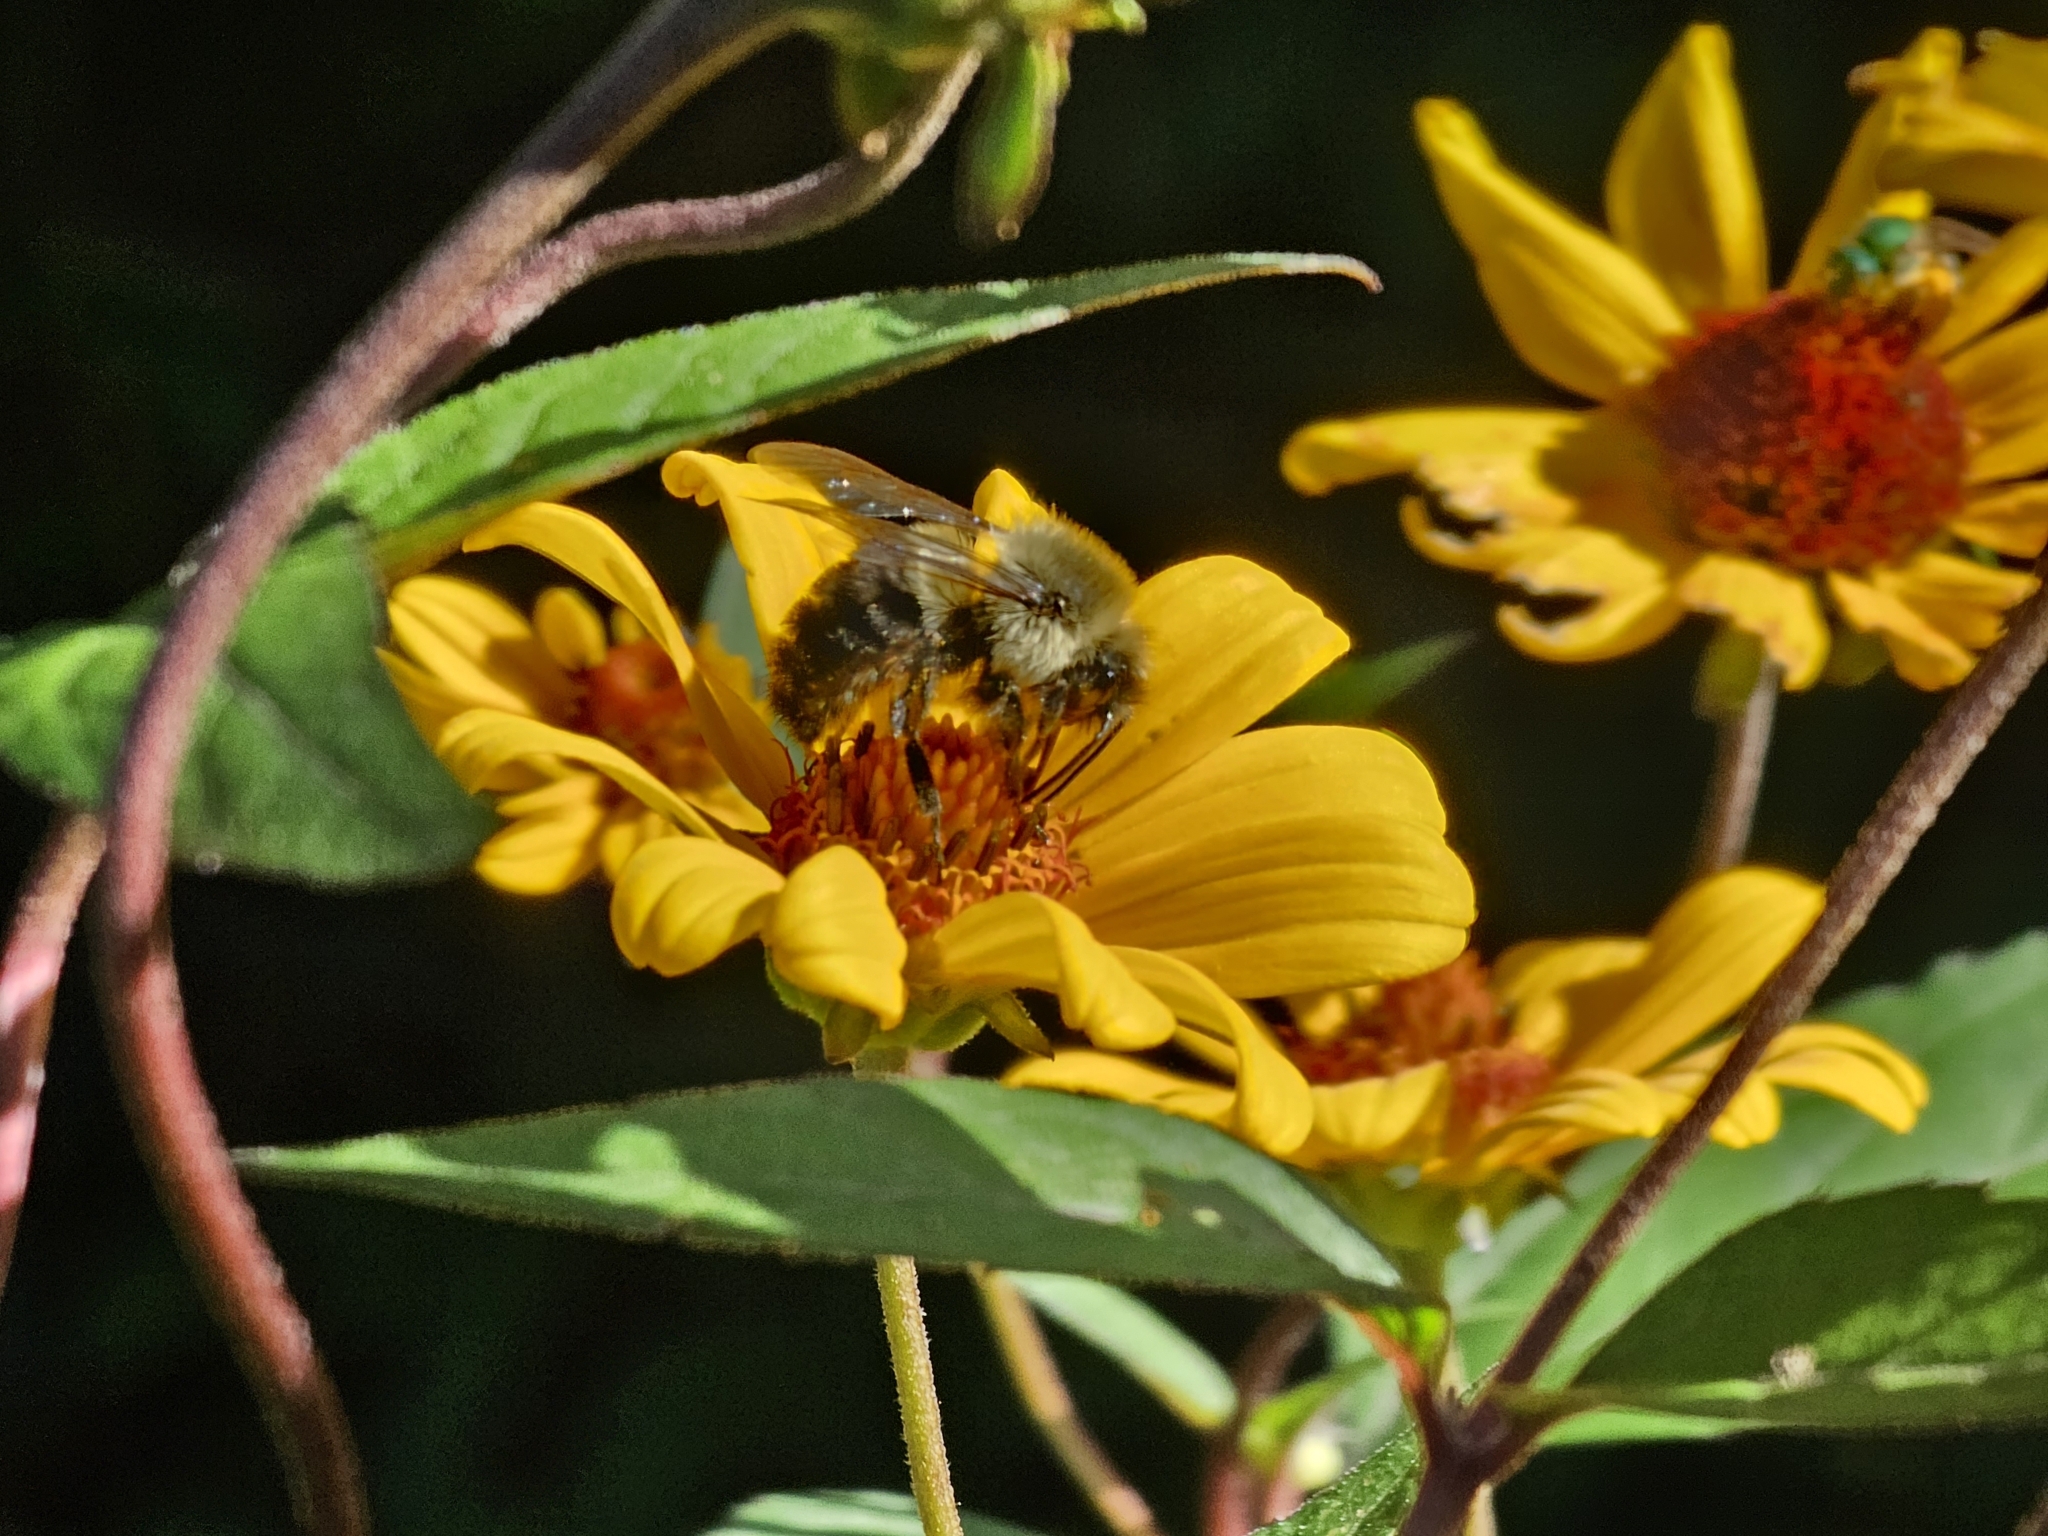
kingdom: Animalia
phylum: Arthropoda
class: Insecta
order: Hymenoptera
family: Apidae
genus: Bombus
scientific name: Bombus impatiens
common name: Common eastern bumble bee
